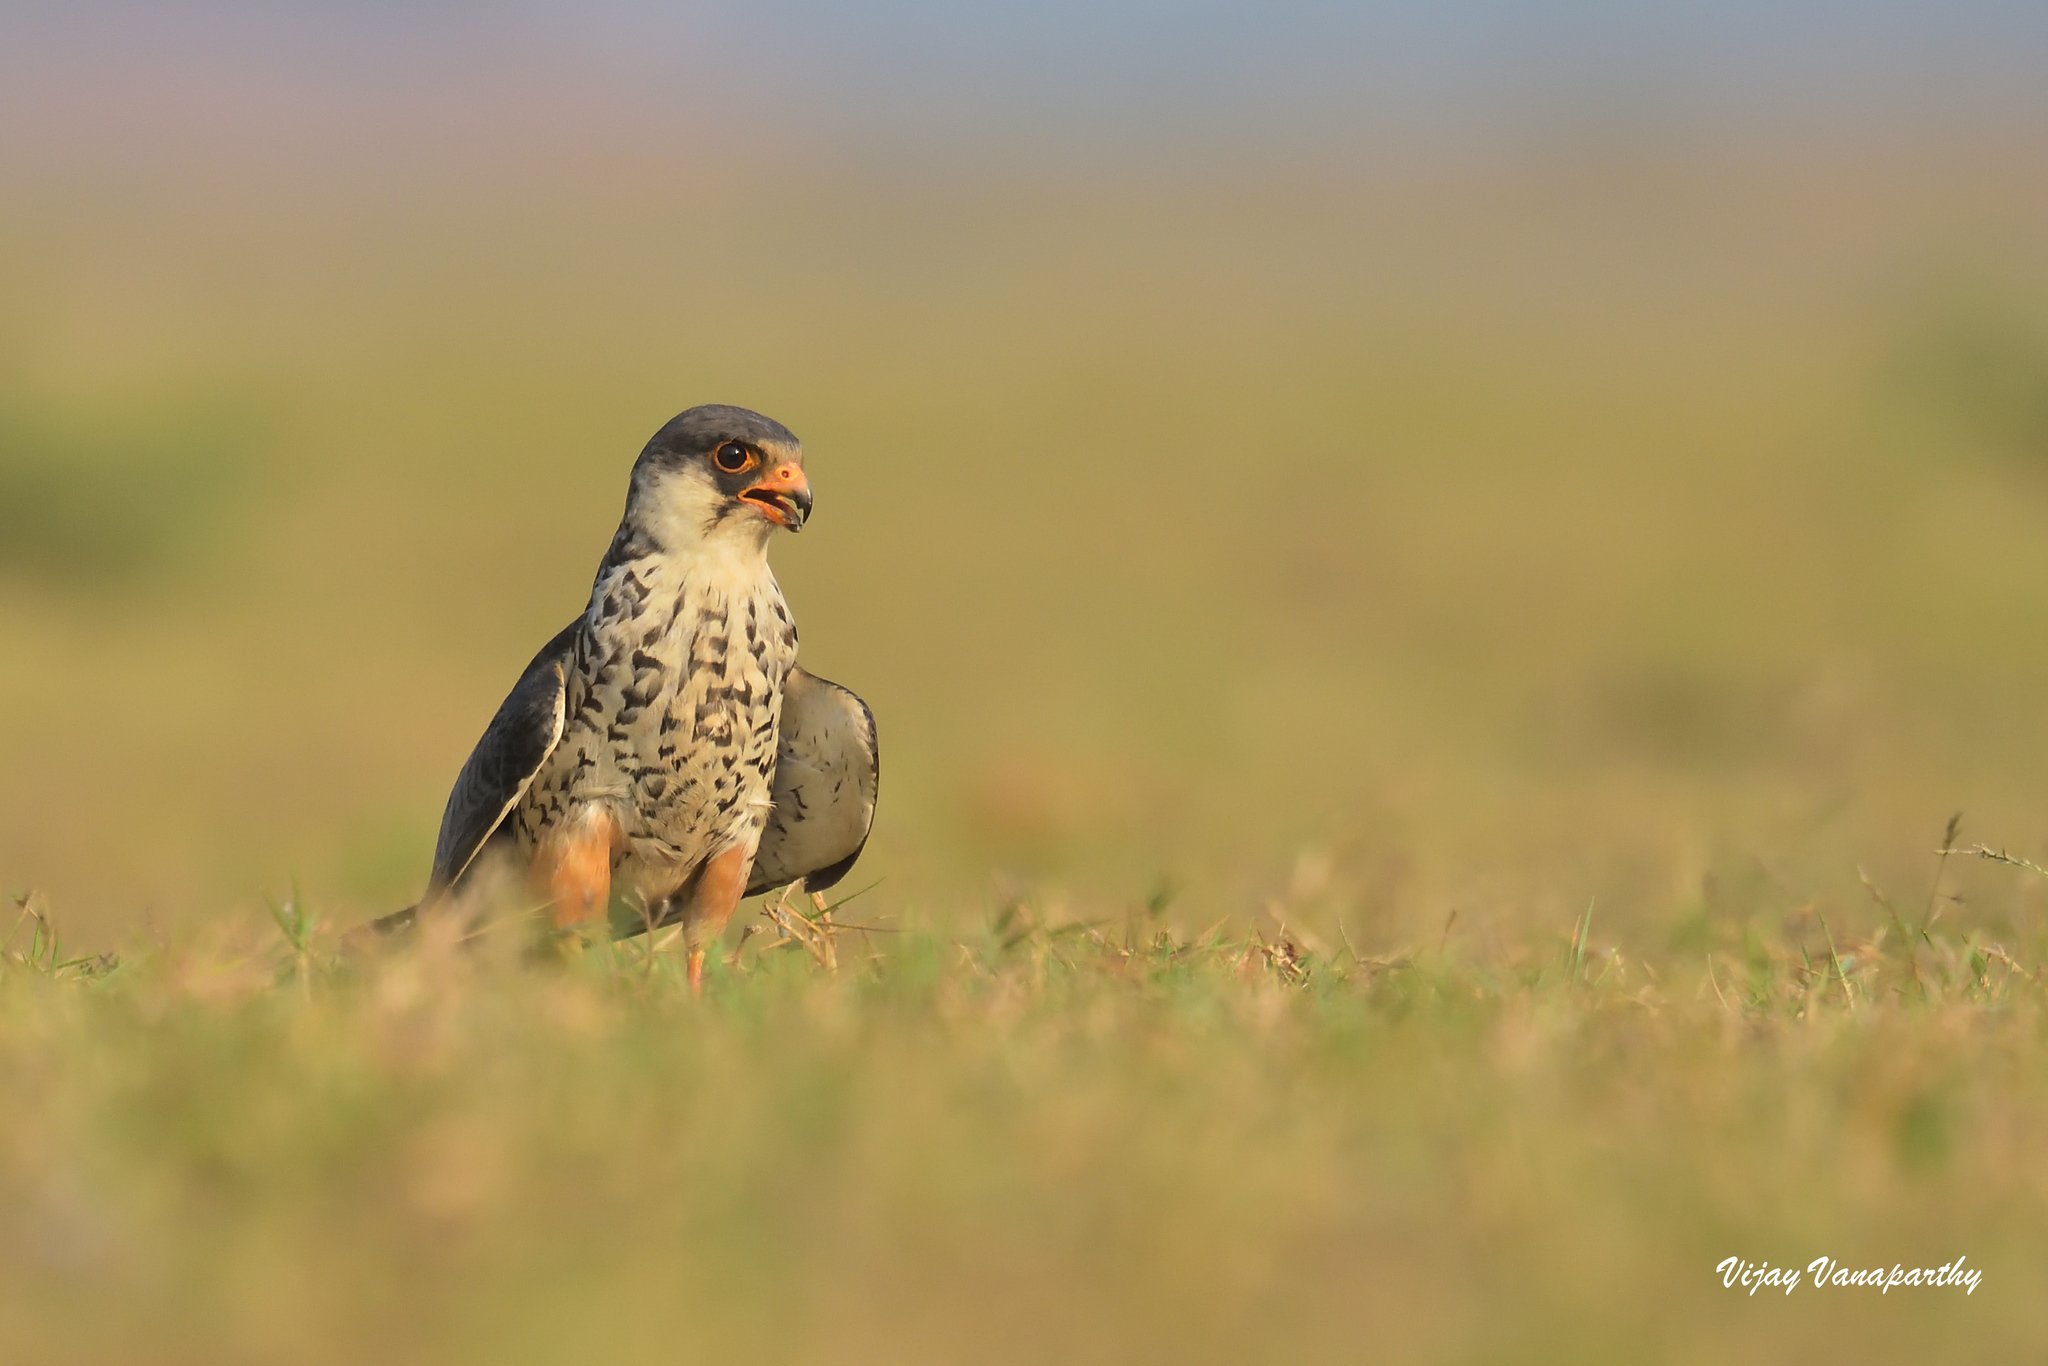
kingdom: Animalia
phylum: Chordata
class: Aves
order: Falconiformes
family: Falconidae
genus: Falco
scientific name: Falco amurensis
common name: Amur falcon
